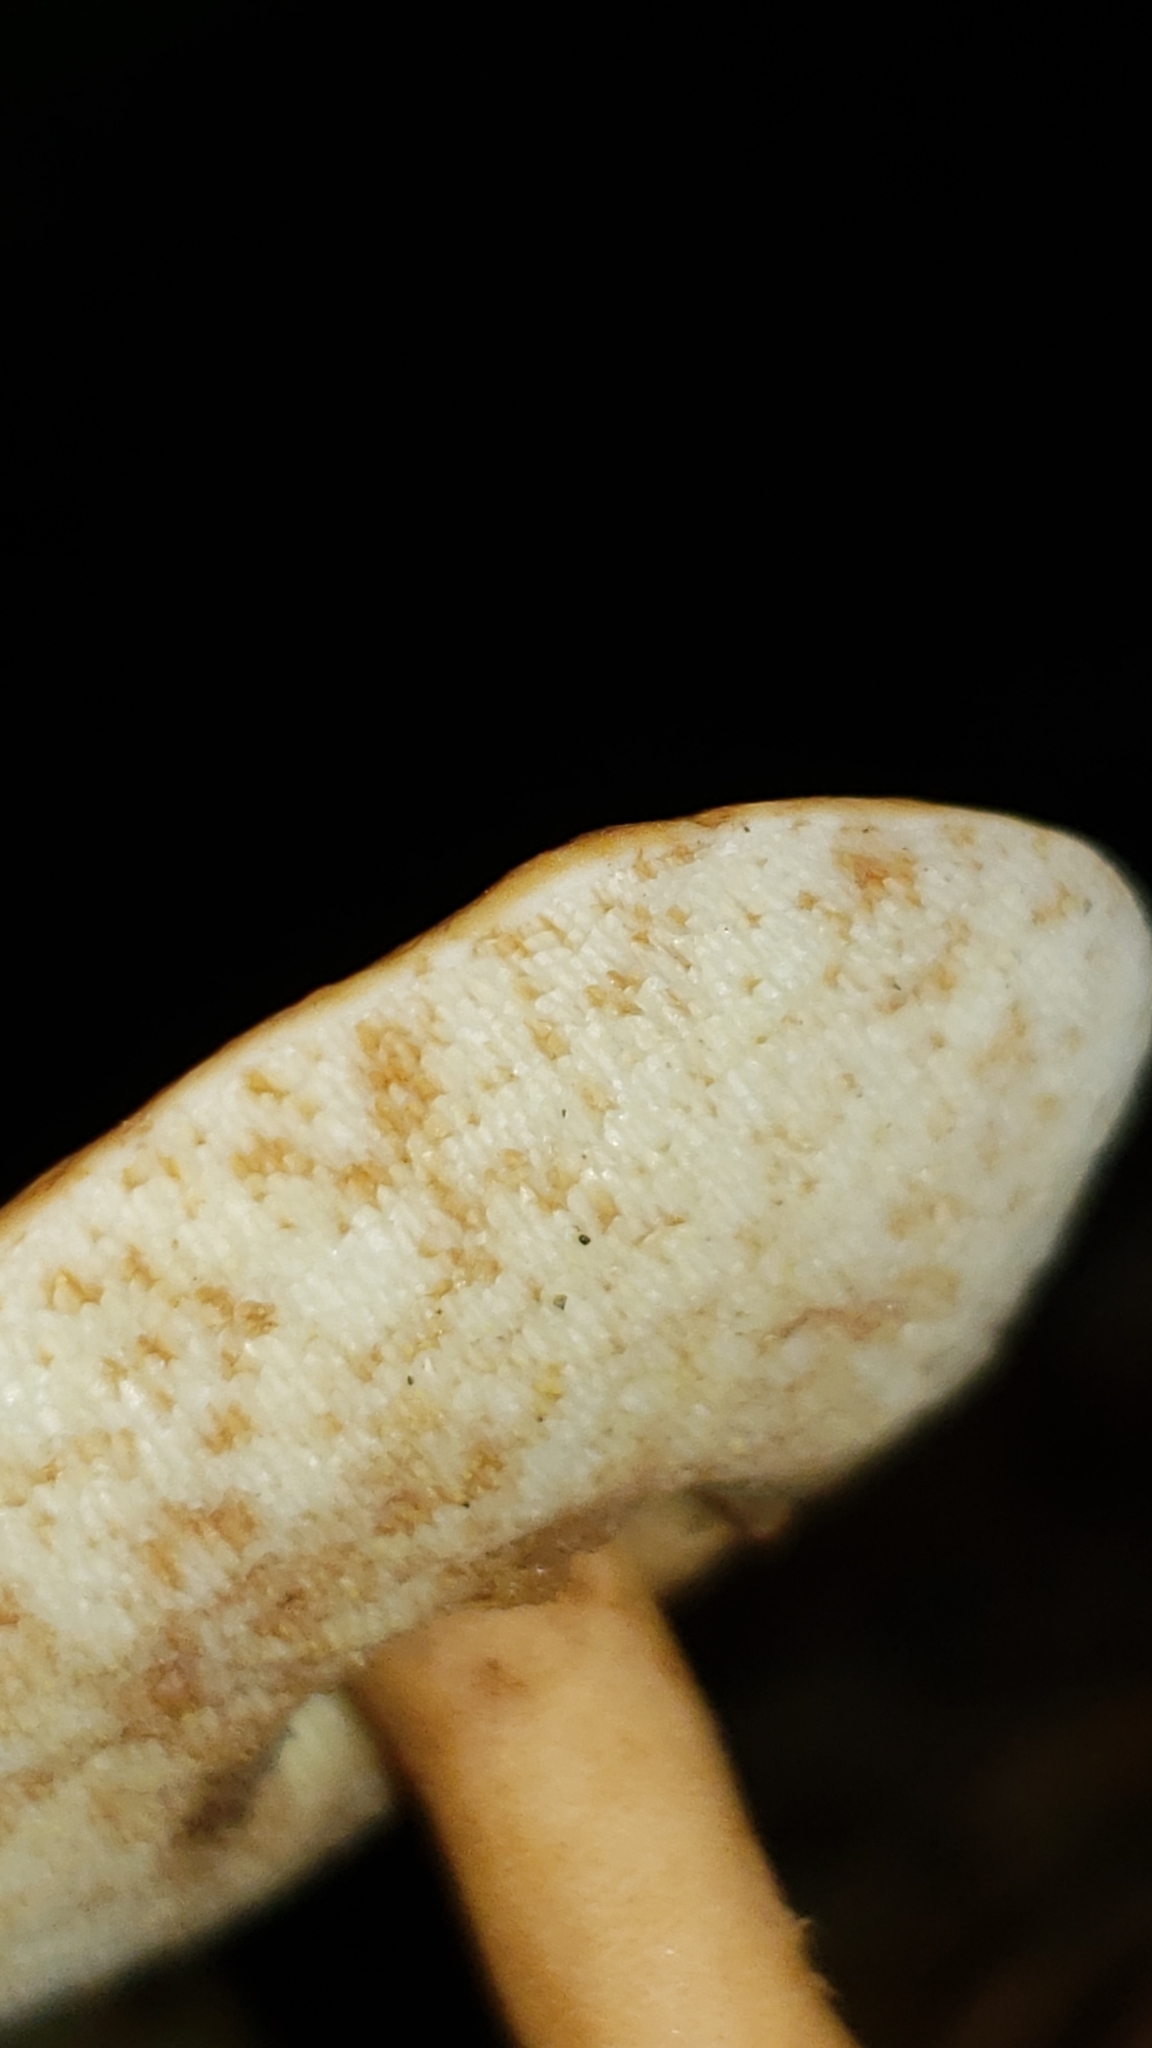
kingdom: Fungi
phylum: Basidiomycota
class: Agaricomycetes
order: Boletales
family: Gyroporaceae
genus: Gyroporus
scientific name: Gyroporus castaneus
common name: Chestnut bolete
